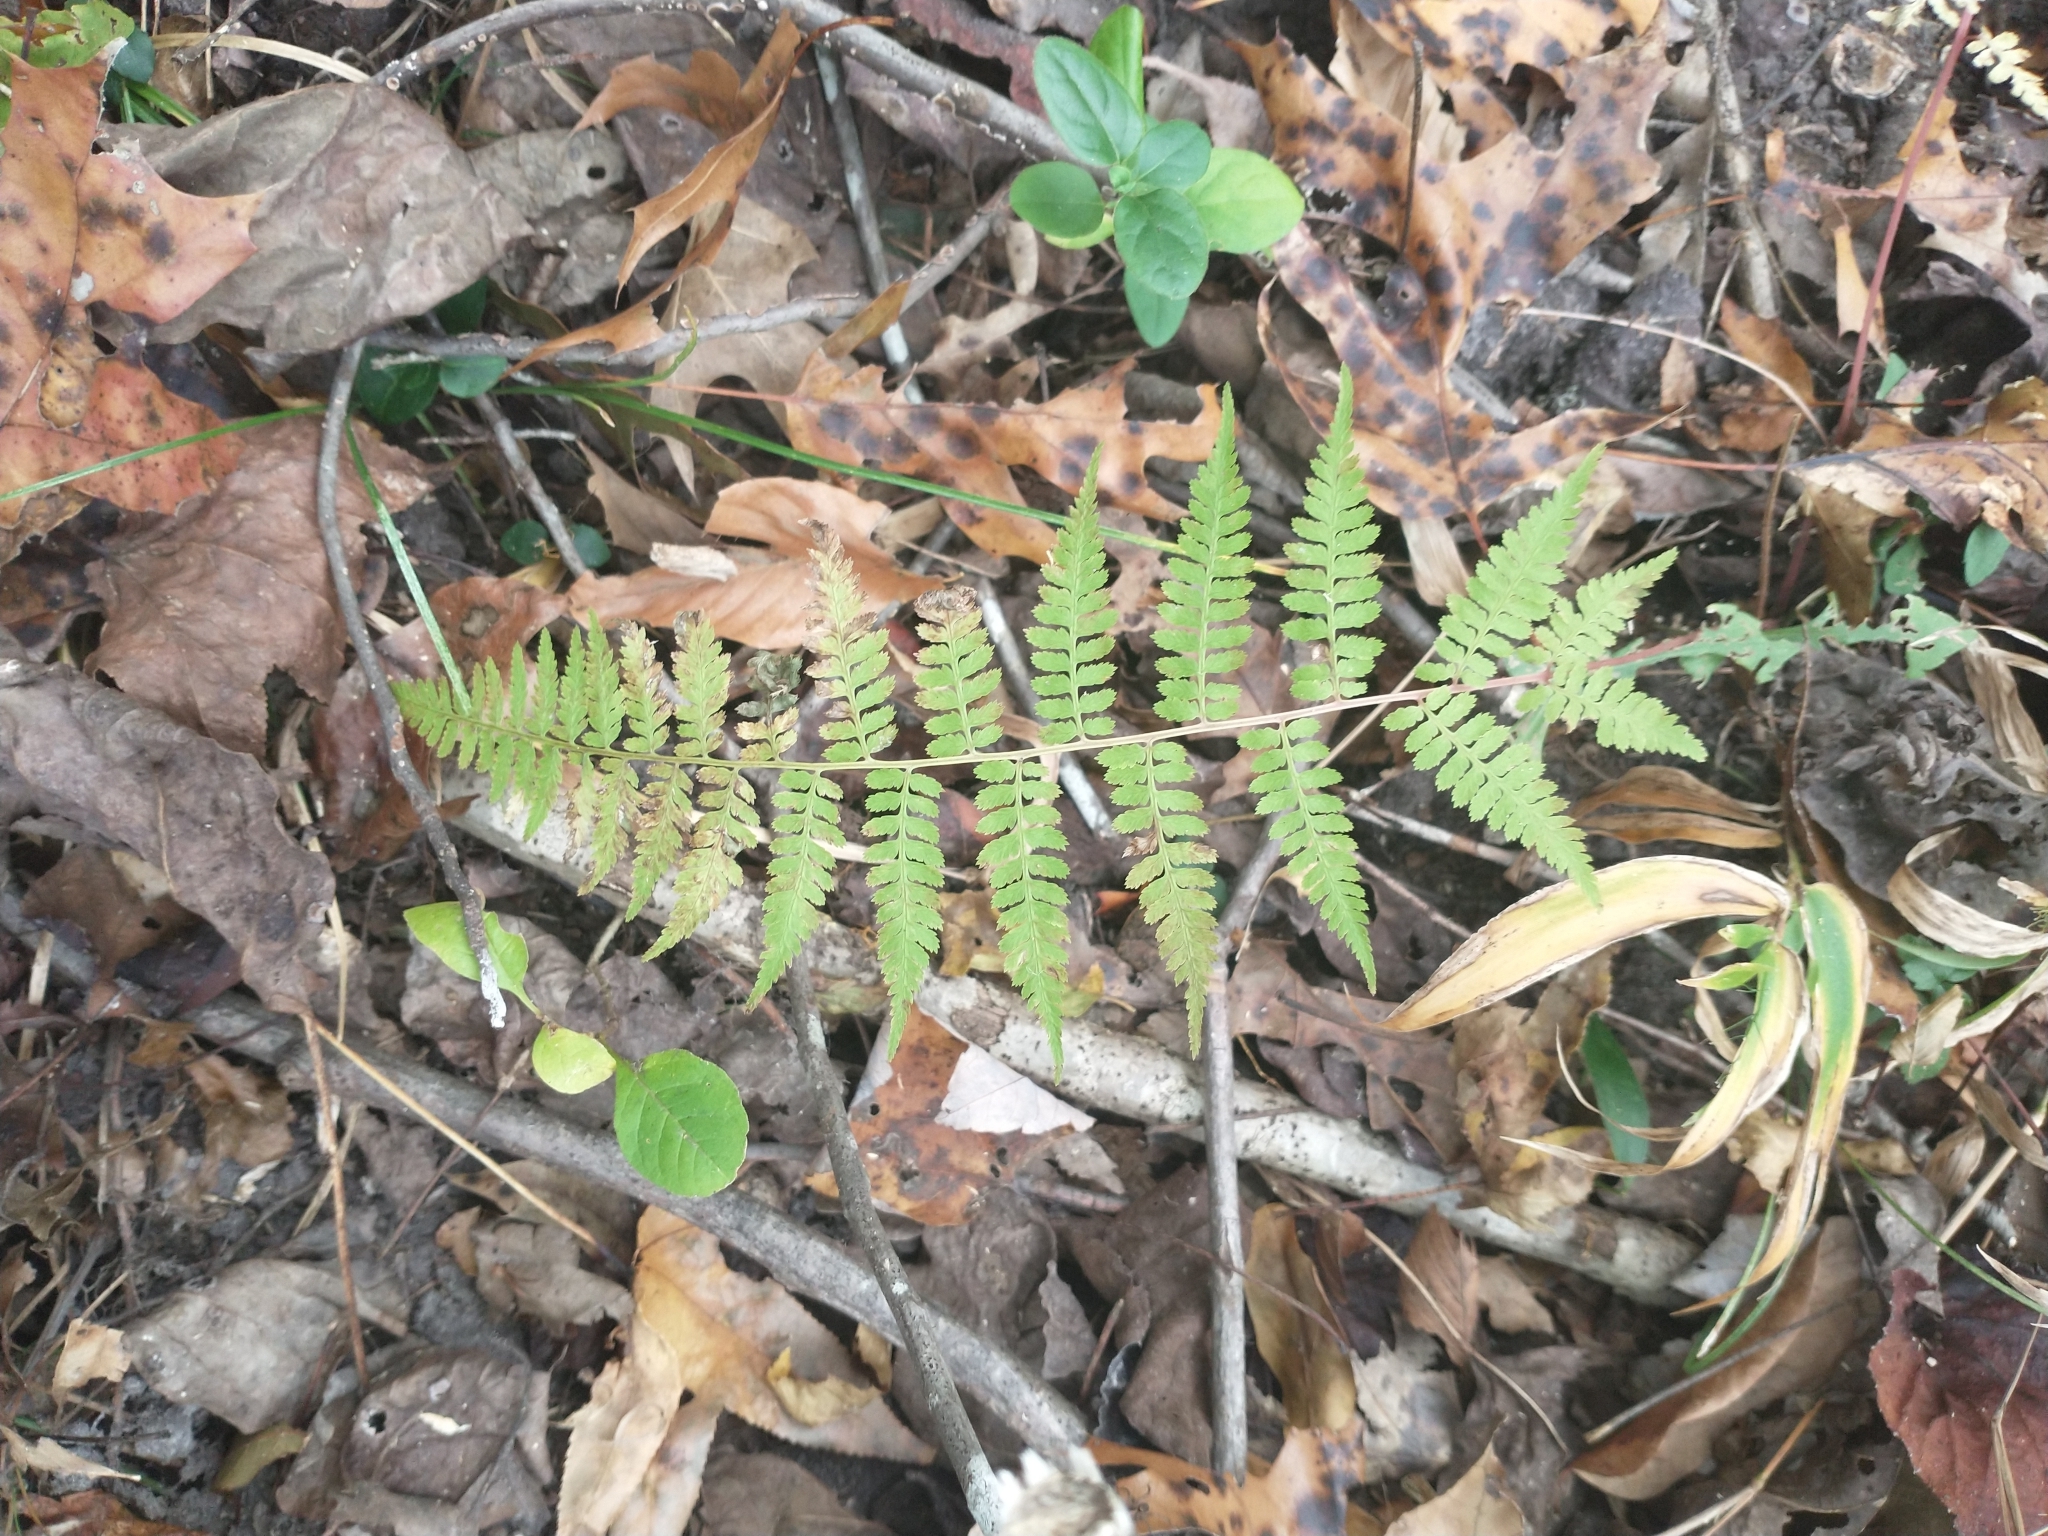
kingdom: Plantae
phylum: Tracheophyta
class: Polypodiopsida
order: Polypodiales
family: Athyriaceae
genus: Athyrium
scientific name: Athyrium asplenioides
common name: Southern lady fern
